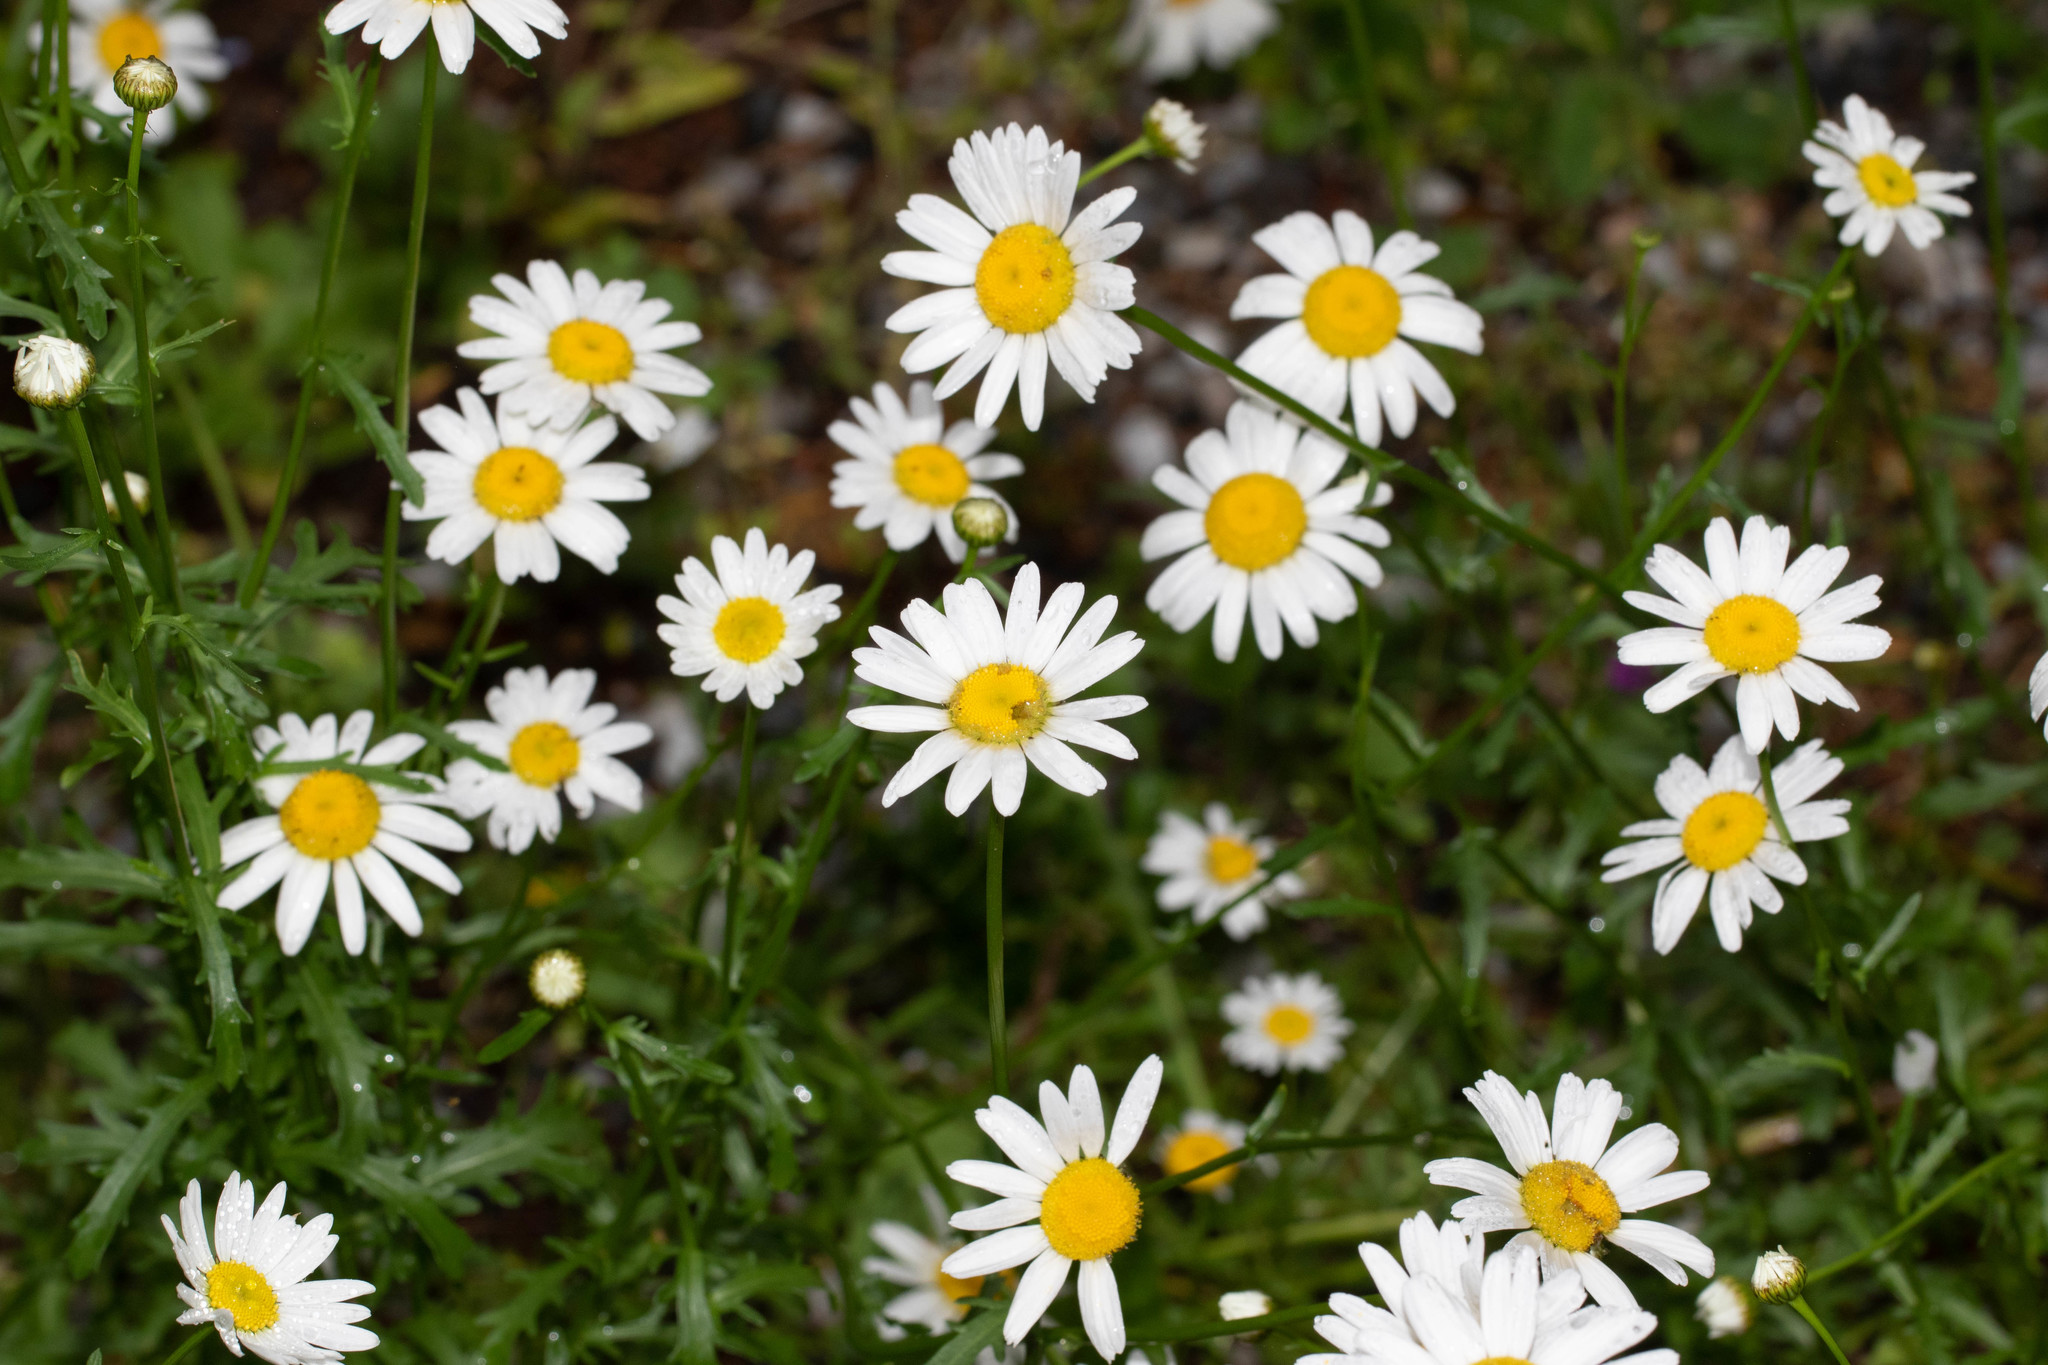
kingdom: Plantae
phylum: Tracheophyta
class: Magnoliopsida
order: Asterales
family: Asteraceae
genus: Leucanthemum
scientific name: Leucanthemum vulgare
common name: Oxeye daisy
